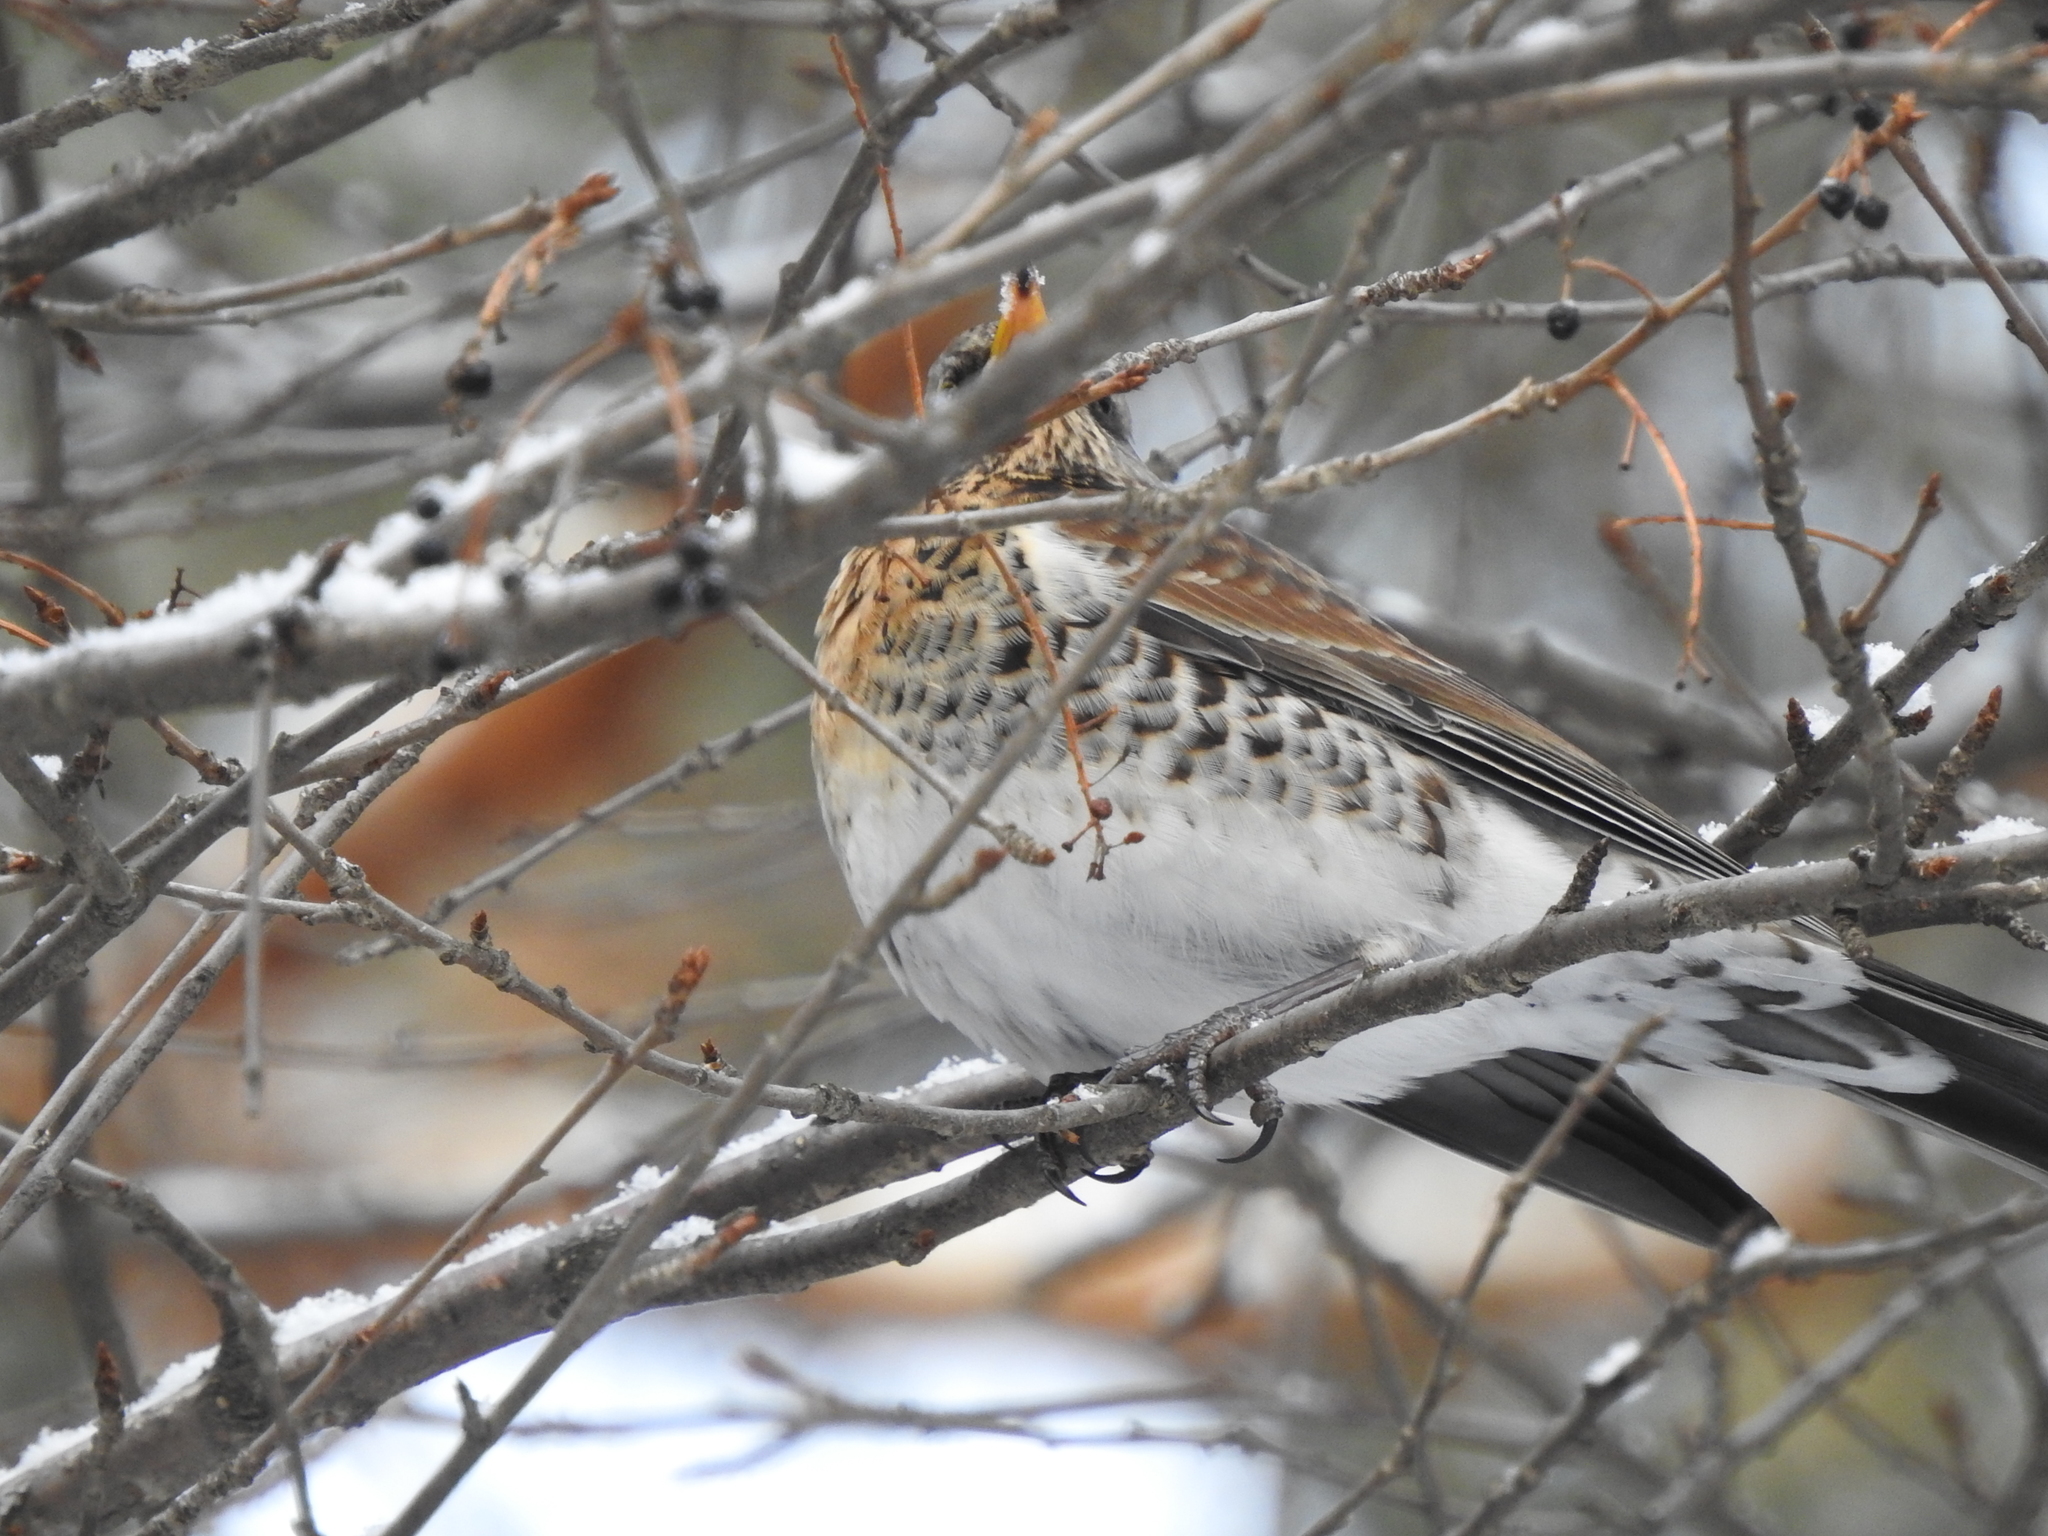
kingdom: Animalia
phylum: Chordata
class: Aves
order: Passeriformes
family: Turdidae
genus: Turdus
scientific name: Turdus pilaris
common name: Fieldfare
